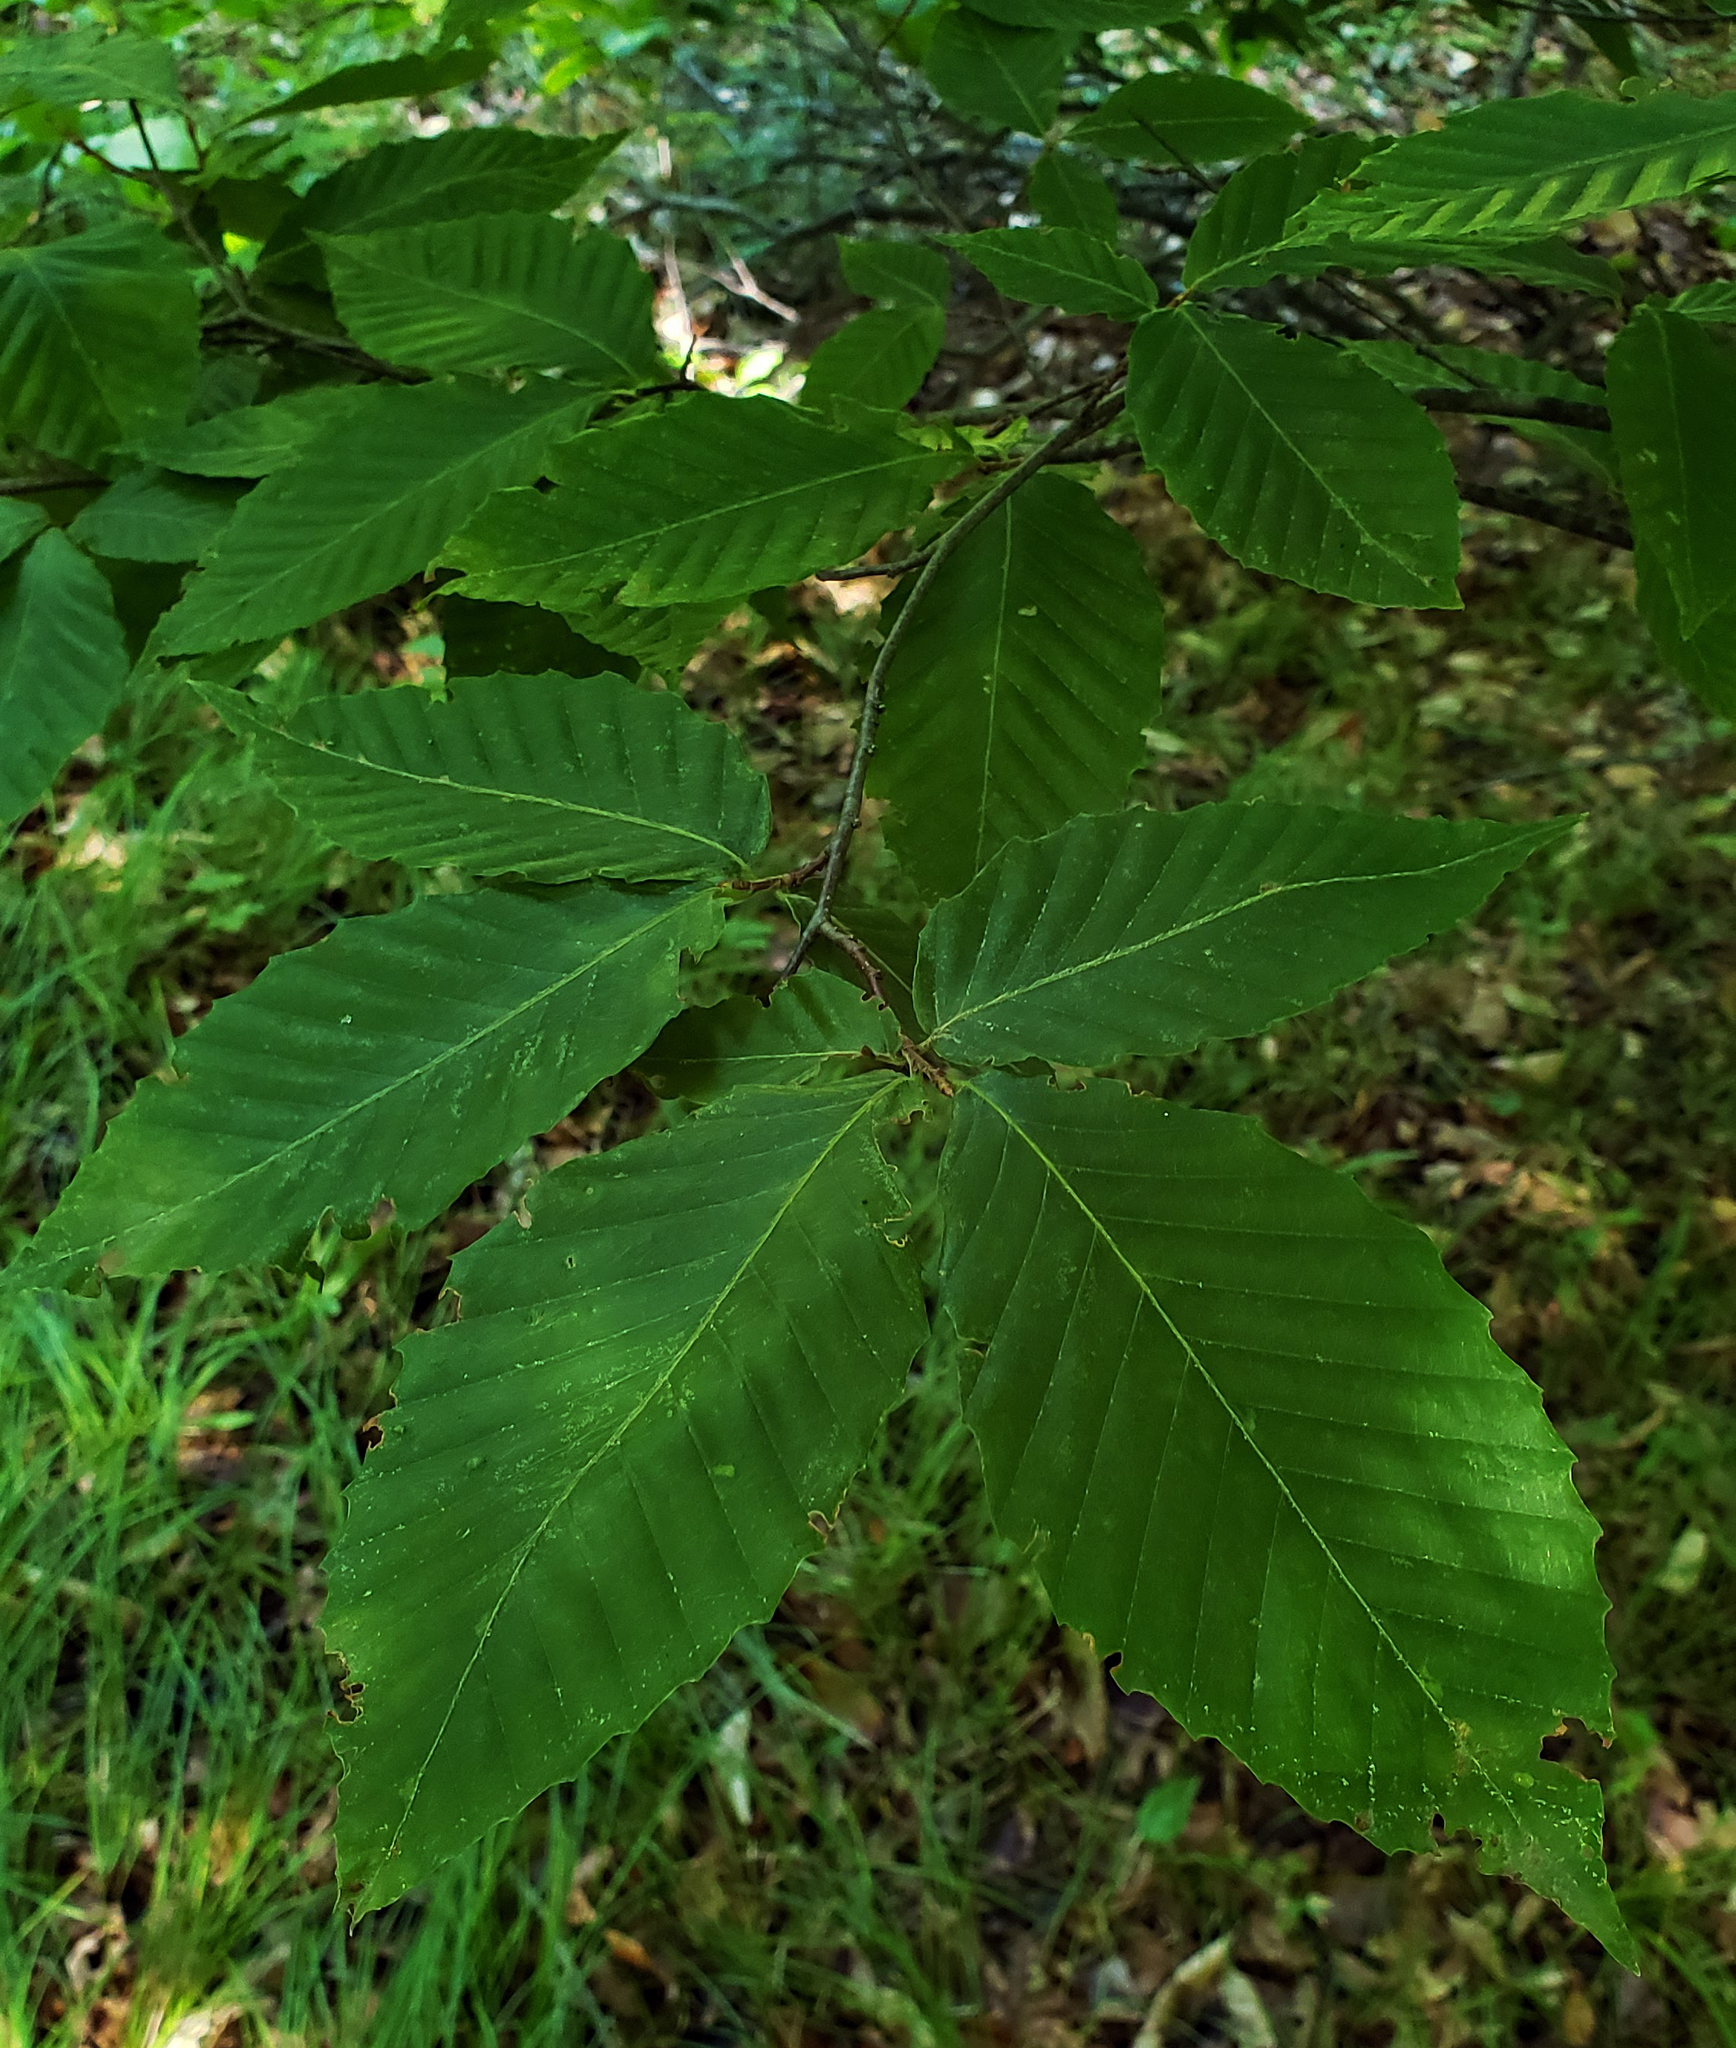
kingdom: Plantae
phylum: Tracheophyta
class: Magnoliopsida
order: Fagales
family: Fagaceae
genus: Fagus
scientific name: Fagus grandifolia
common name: American beech
